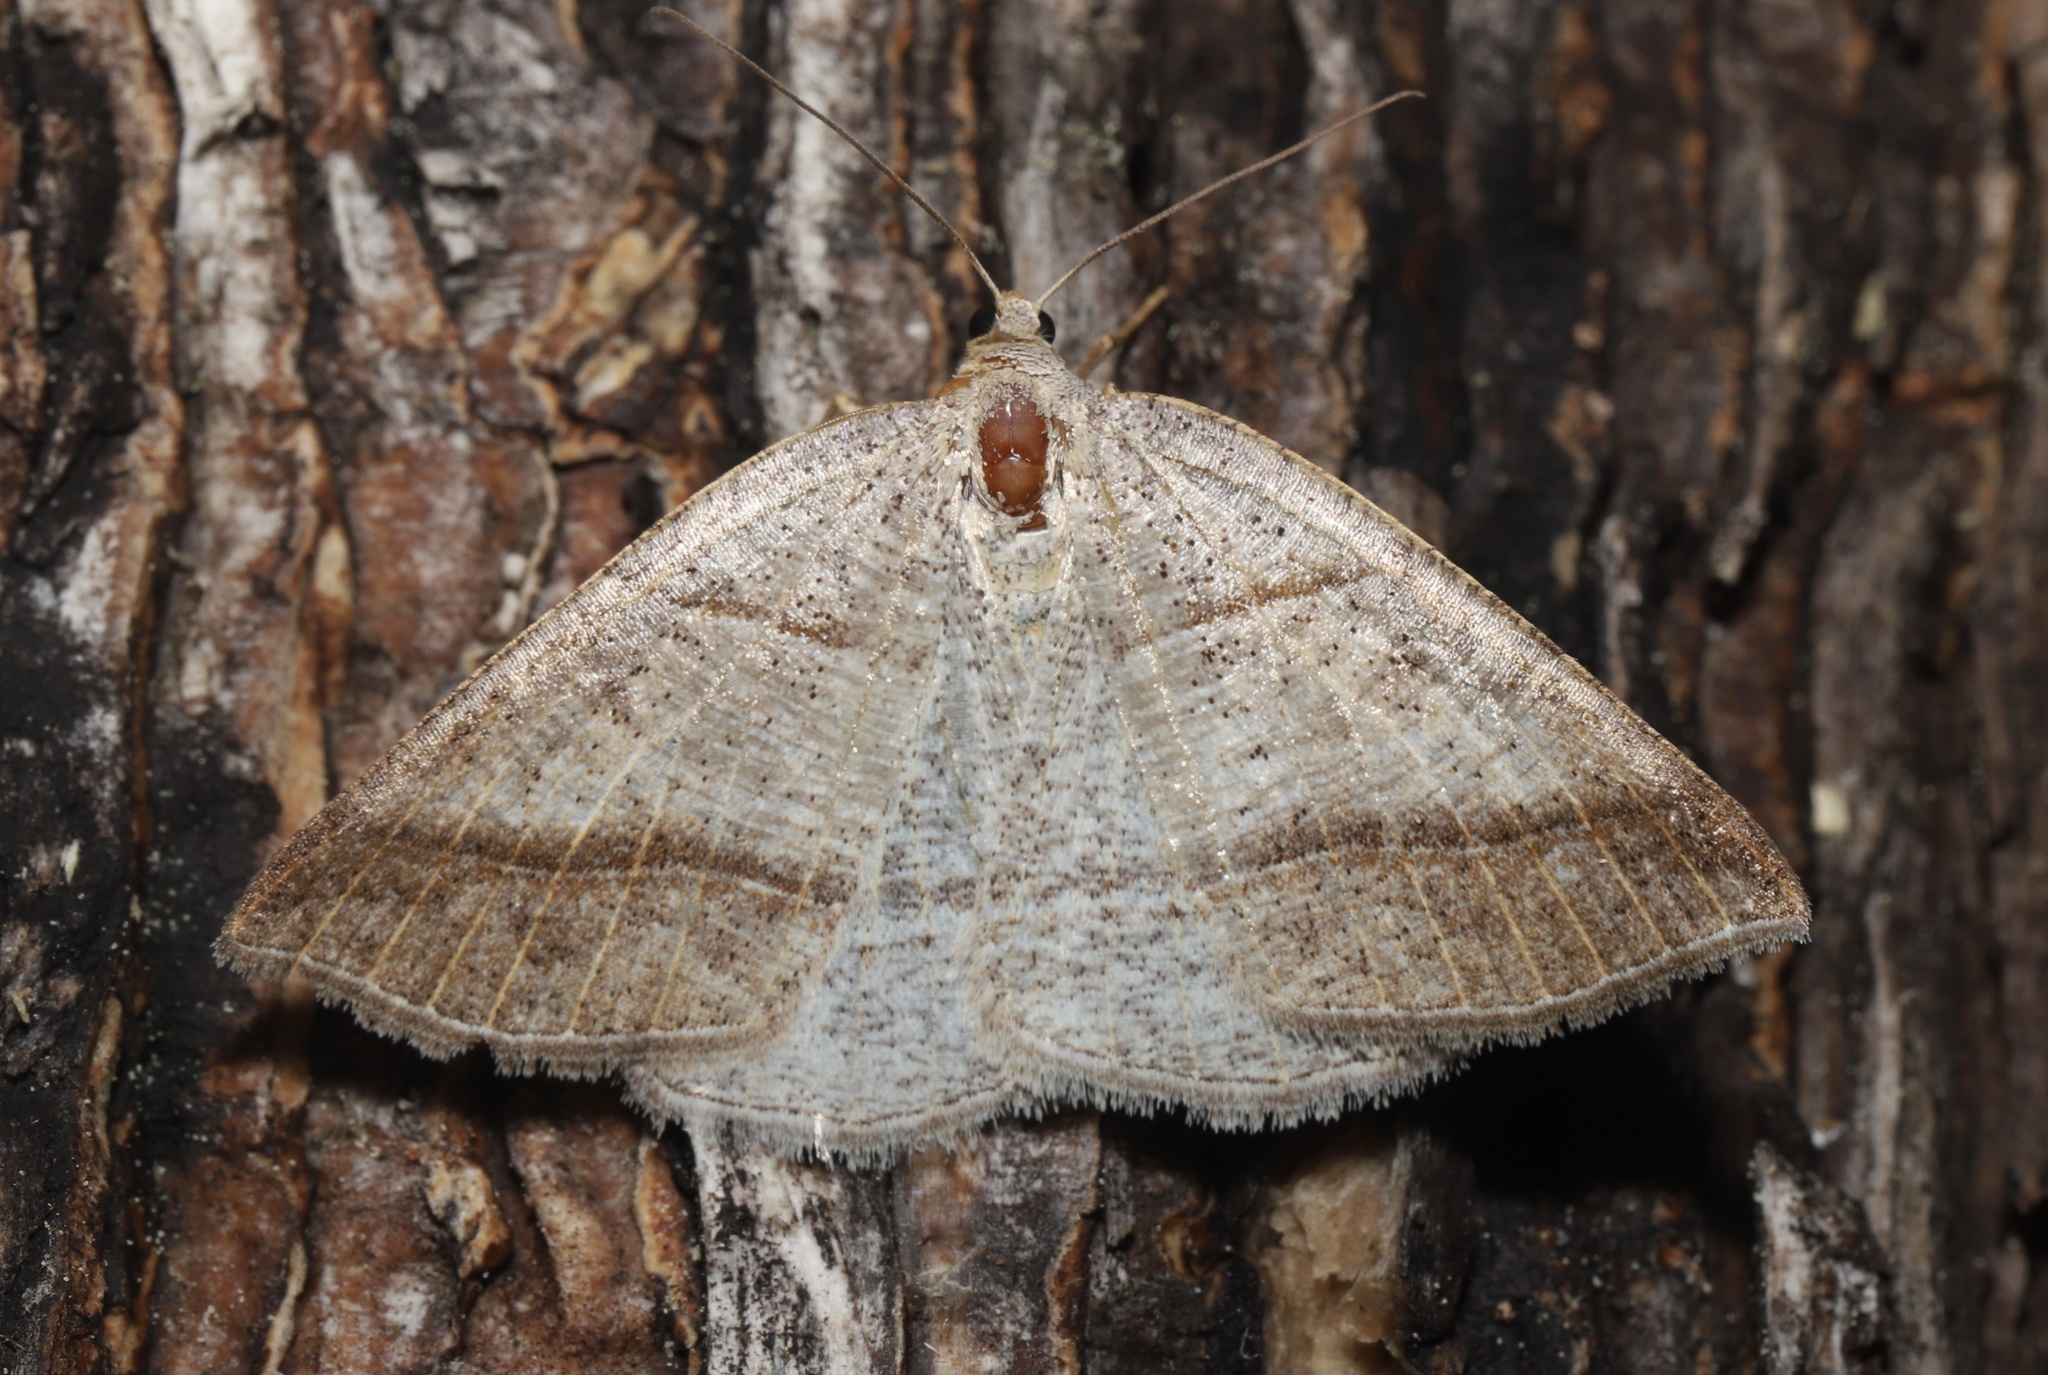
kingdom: Animalia
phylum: Arthropoda
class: Insecta
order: Lepidoptera
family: Pterophoridae
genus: Pterophorus
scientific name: Pterophorus Petrophora subaequaria
